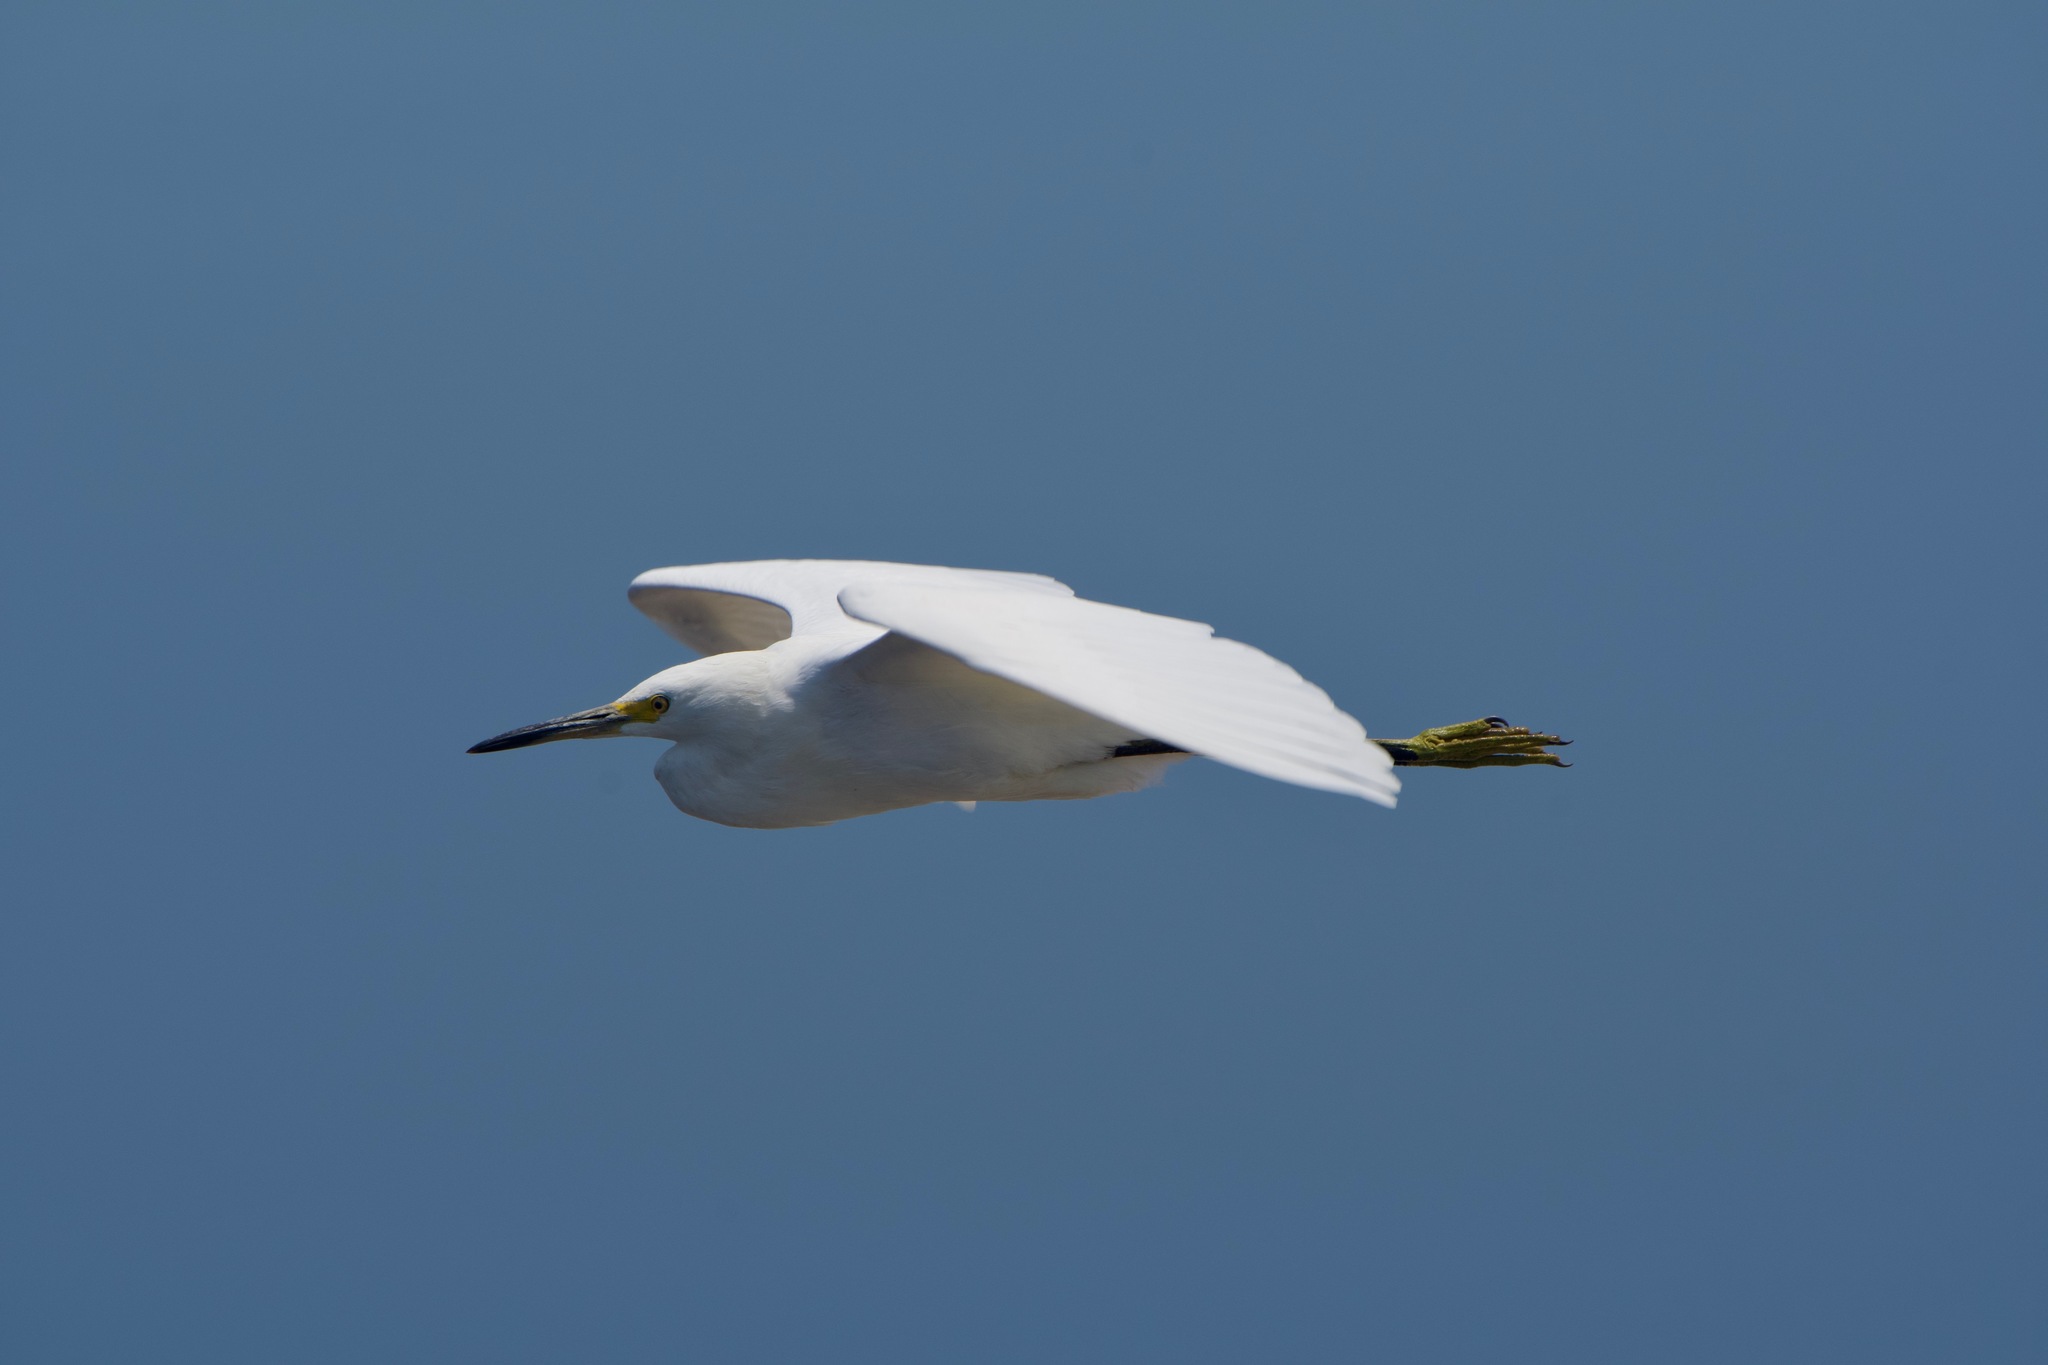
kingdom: Animalia
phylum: Chordata
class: Aves
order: Pelecaniformes
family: Ardeidae
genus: Egretta
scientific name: Egretta thula
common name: Snowy egret
